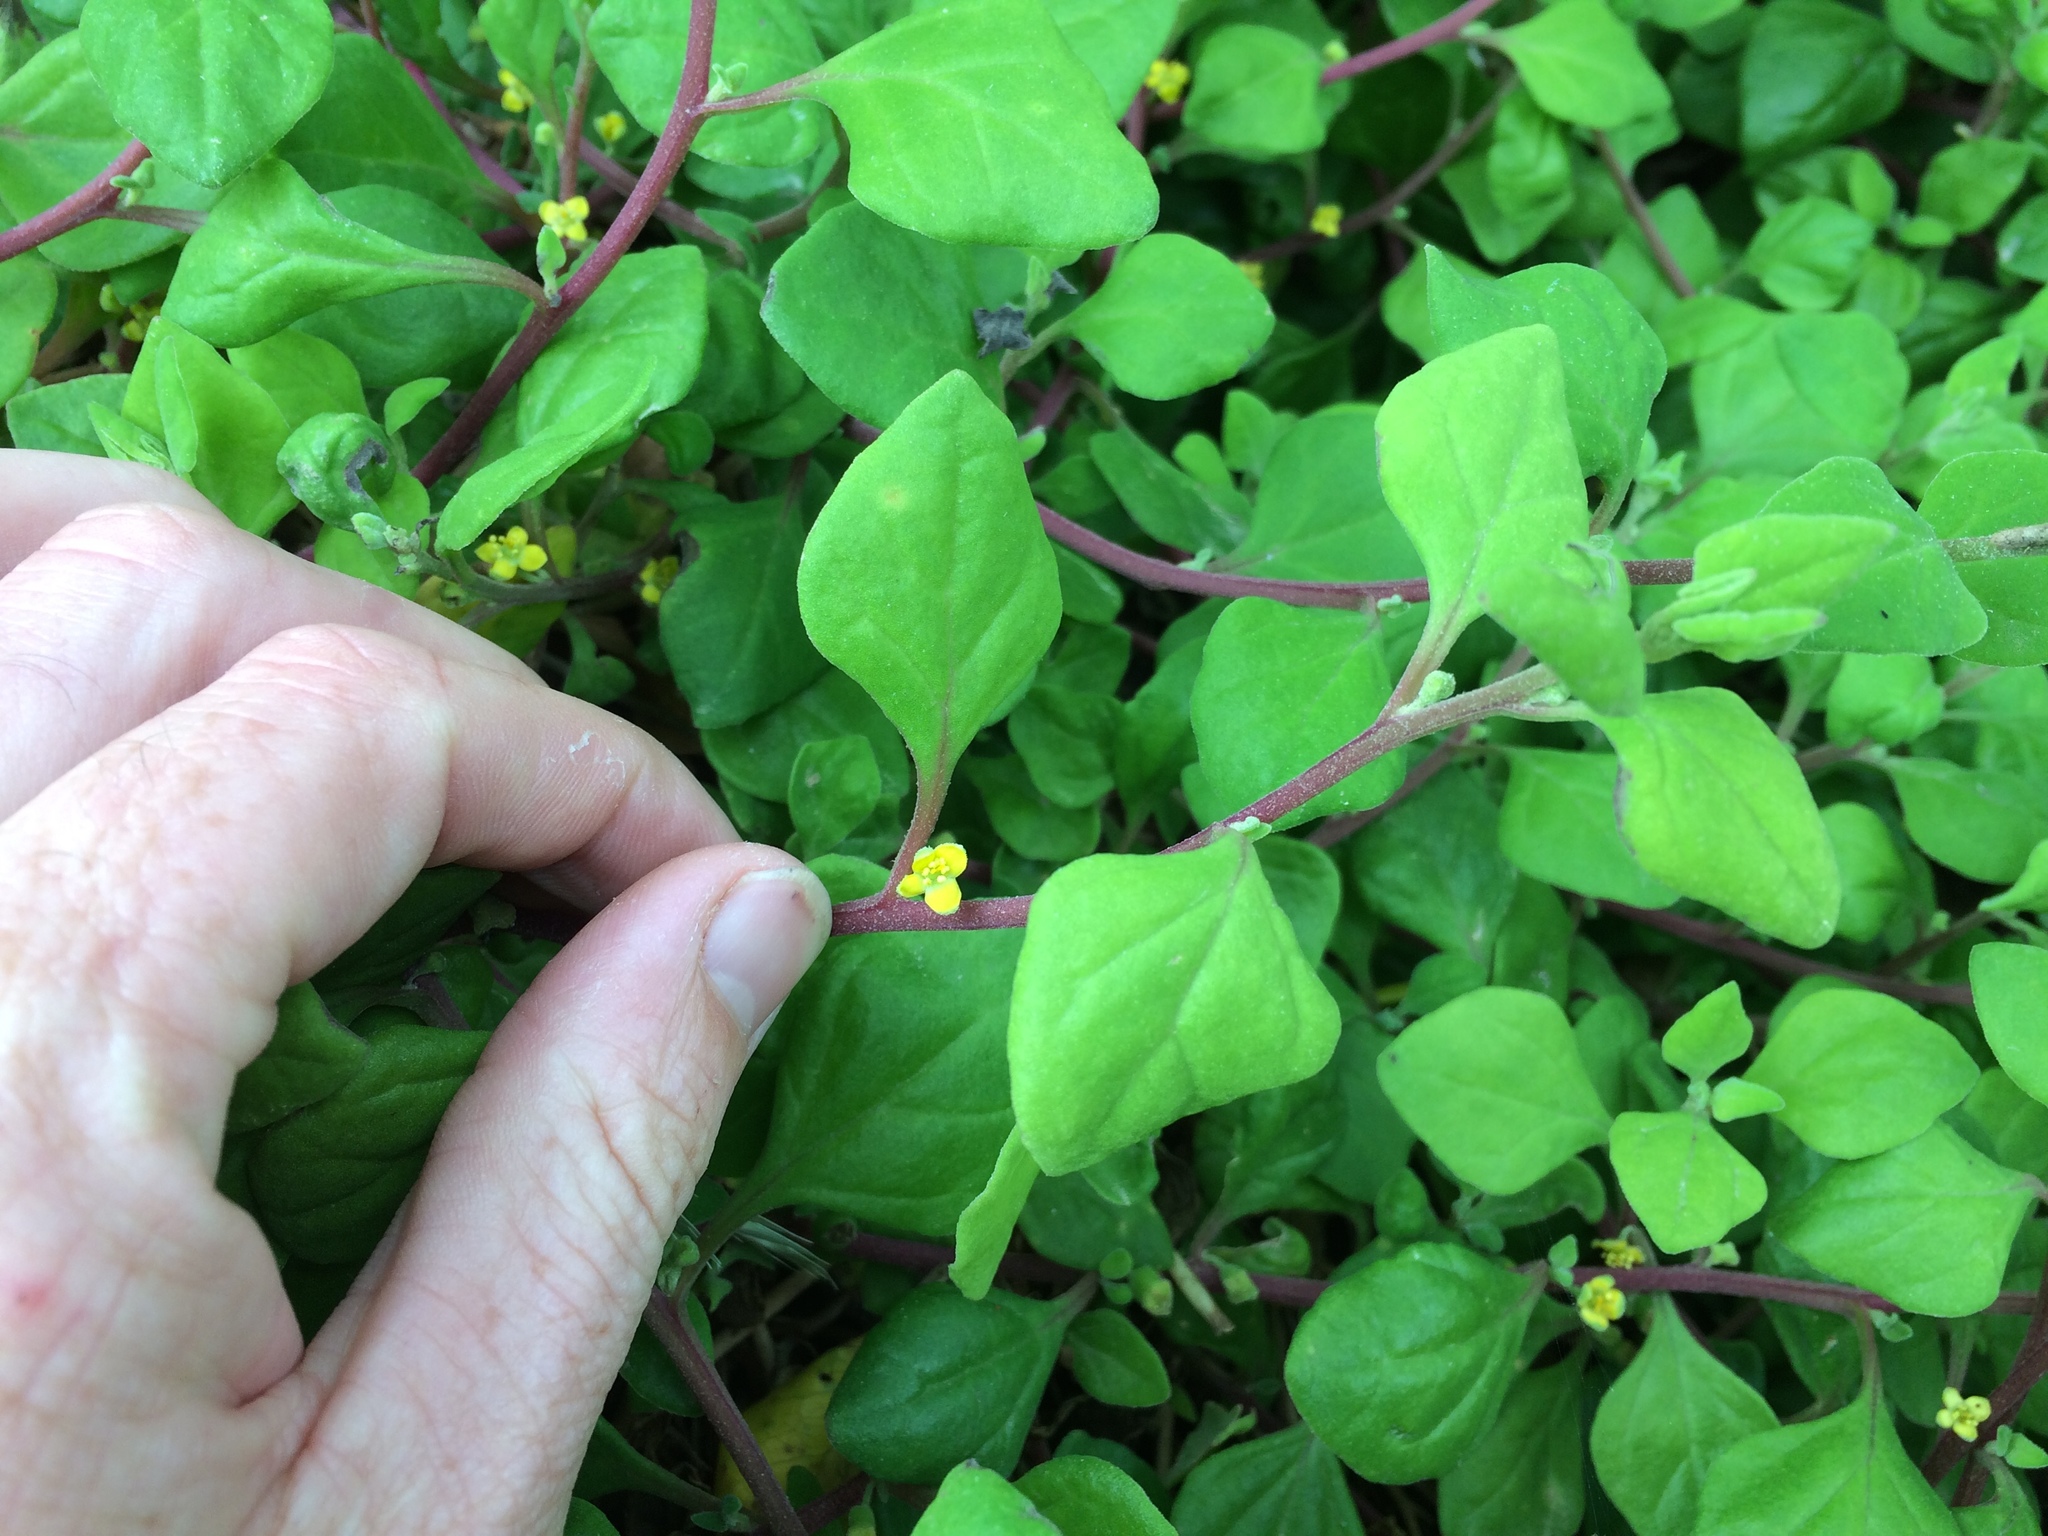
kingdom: Plantae
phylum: Tracheophyta
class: Magnoliopsida
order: Caryophyllales
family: Aizoaceae
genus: Tetragonia
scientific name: Tetragonia implexicoma
